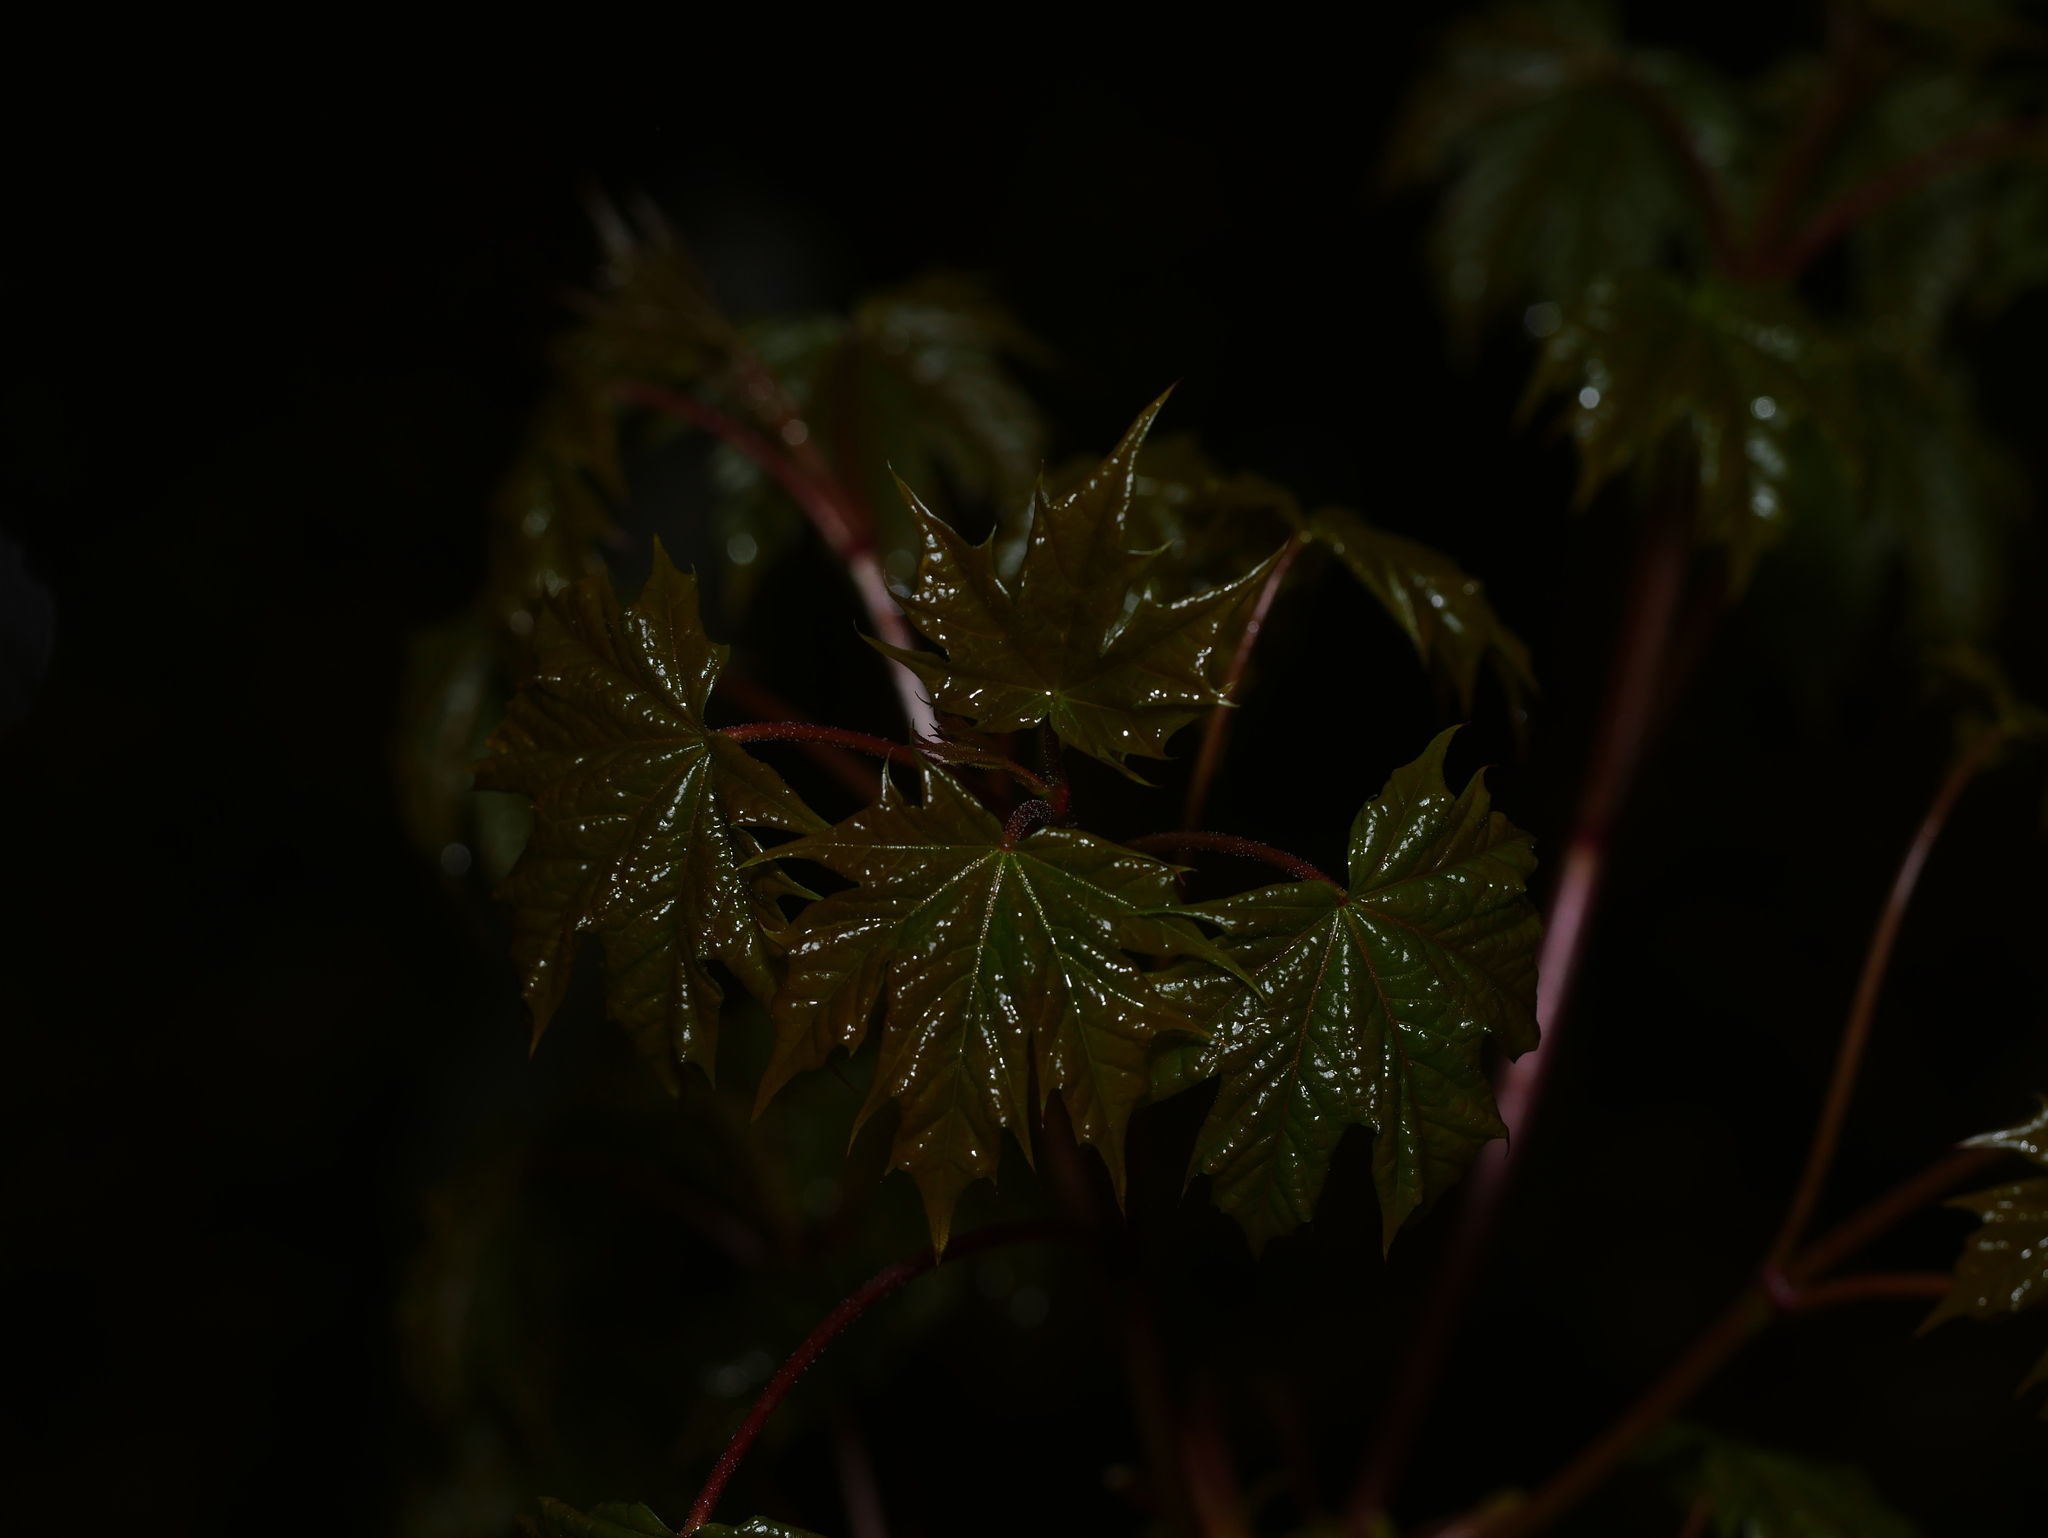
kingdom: Plantae
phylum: Tracheophyta
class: Magnoliopsida
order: Sapindales
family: Sapindaceae
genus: Acer
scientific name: Acer platanoides
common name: Norway maple
